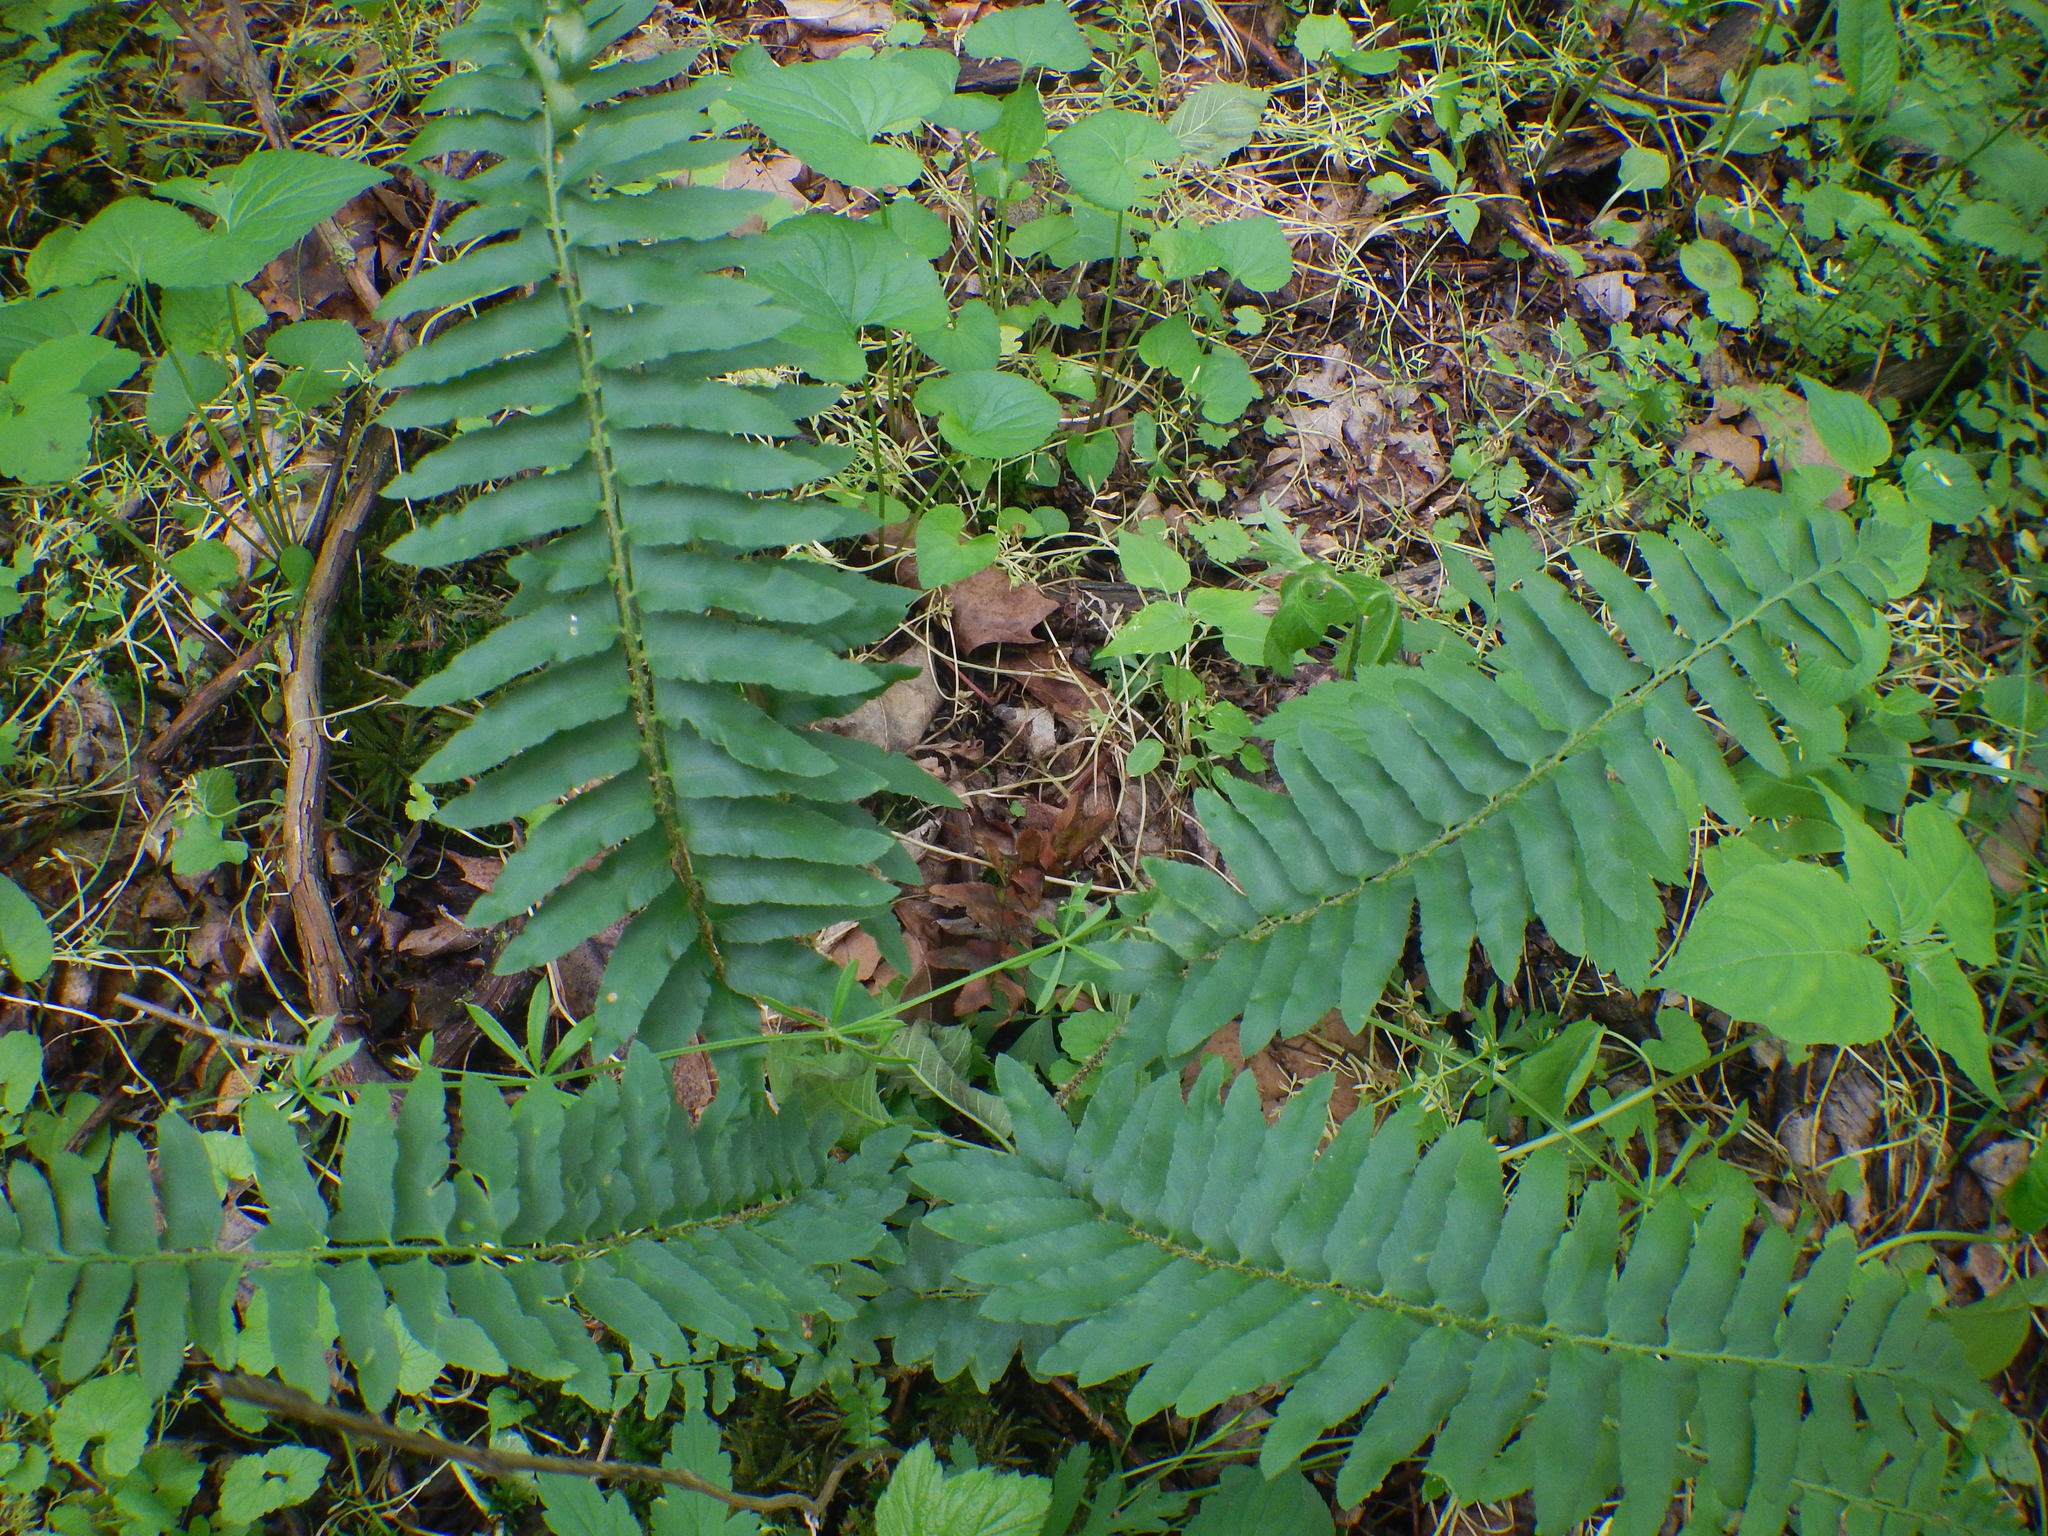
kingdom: Plantae
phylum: Tracheophyta
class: Polypodiopsida
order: Polypodiales
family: Dryopteridaceae
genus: Polystichum
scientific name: Polystichum acrostichoides
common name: Christmas fern
